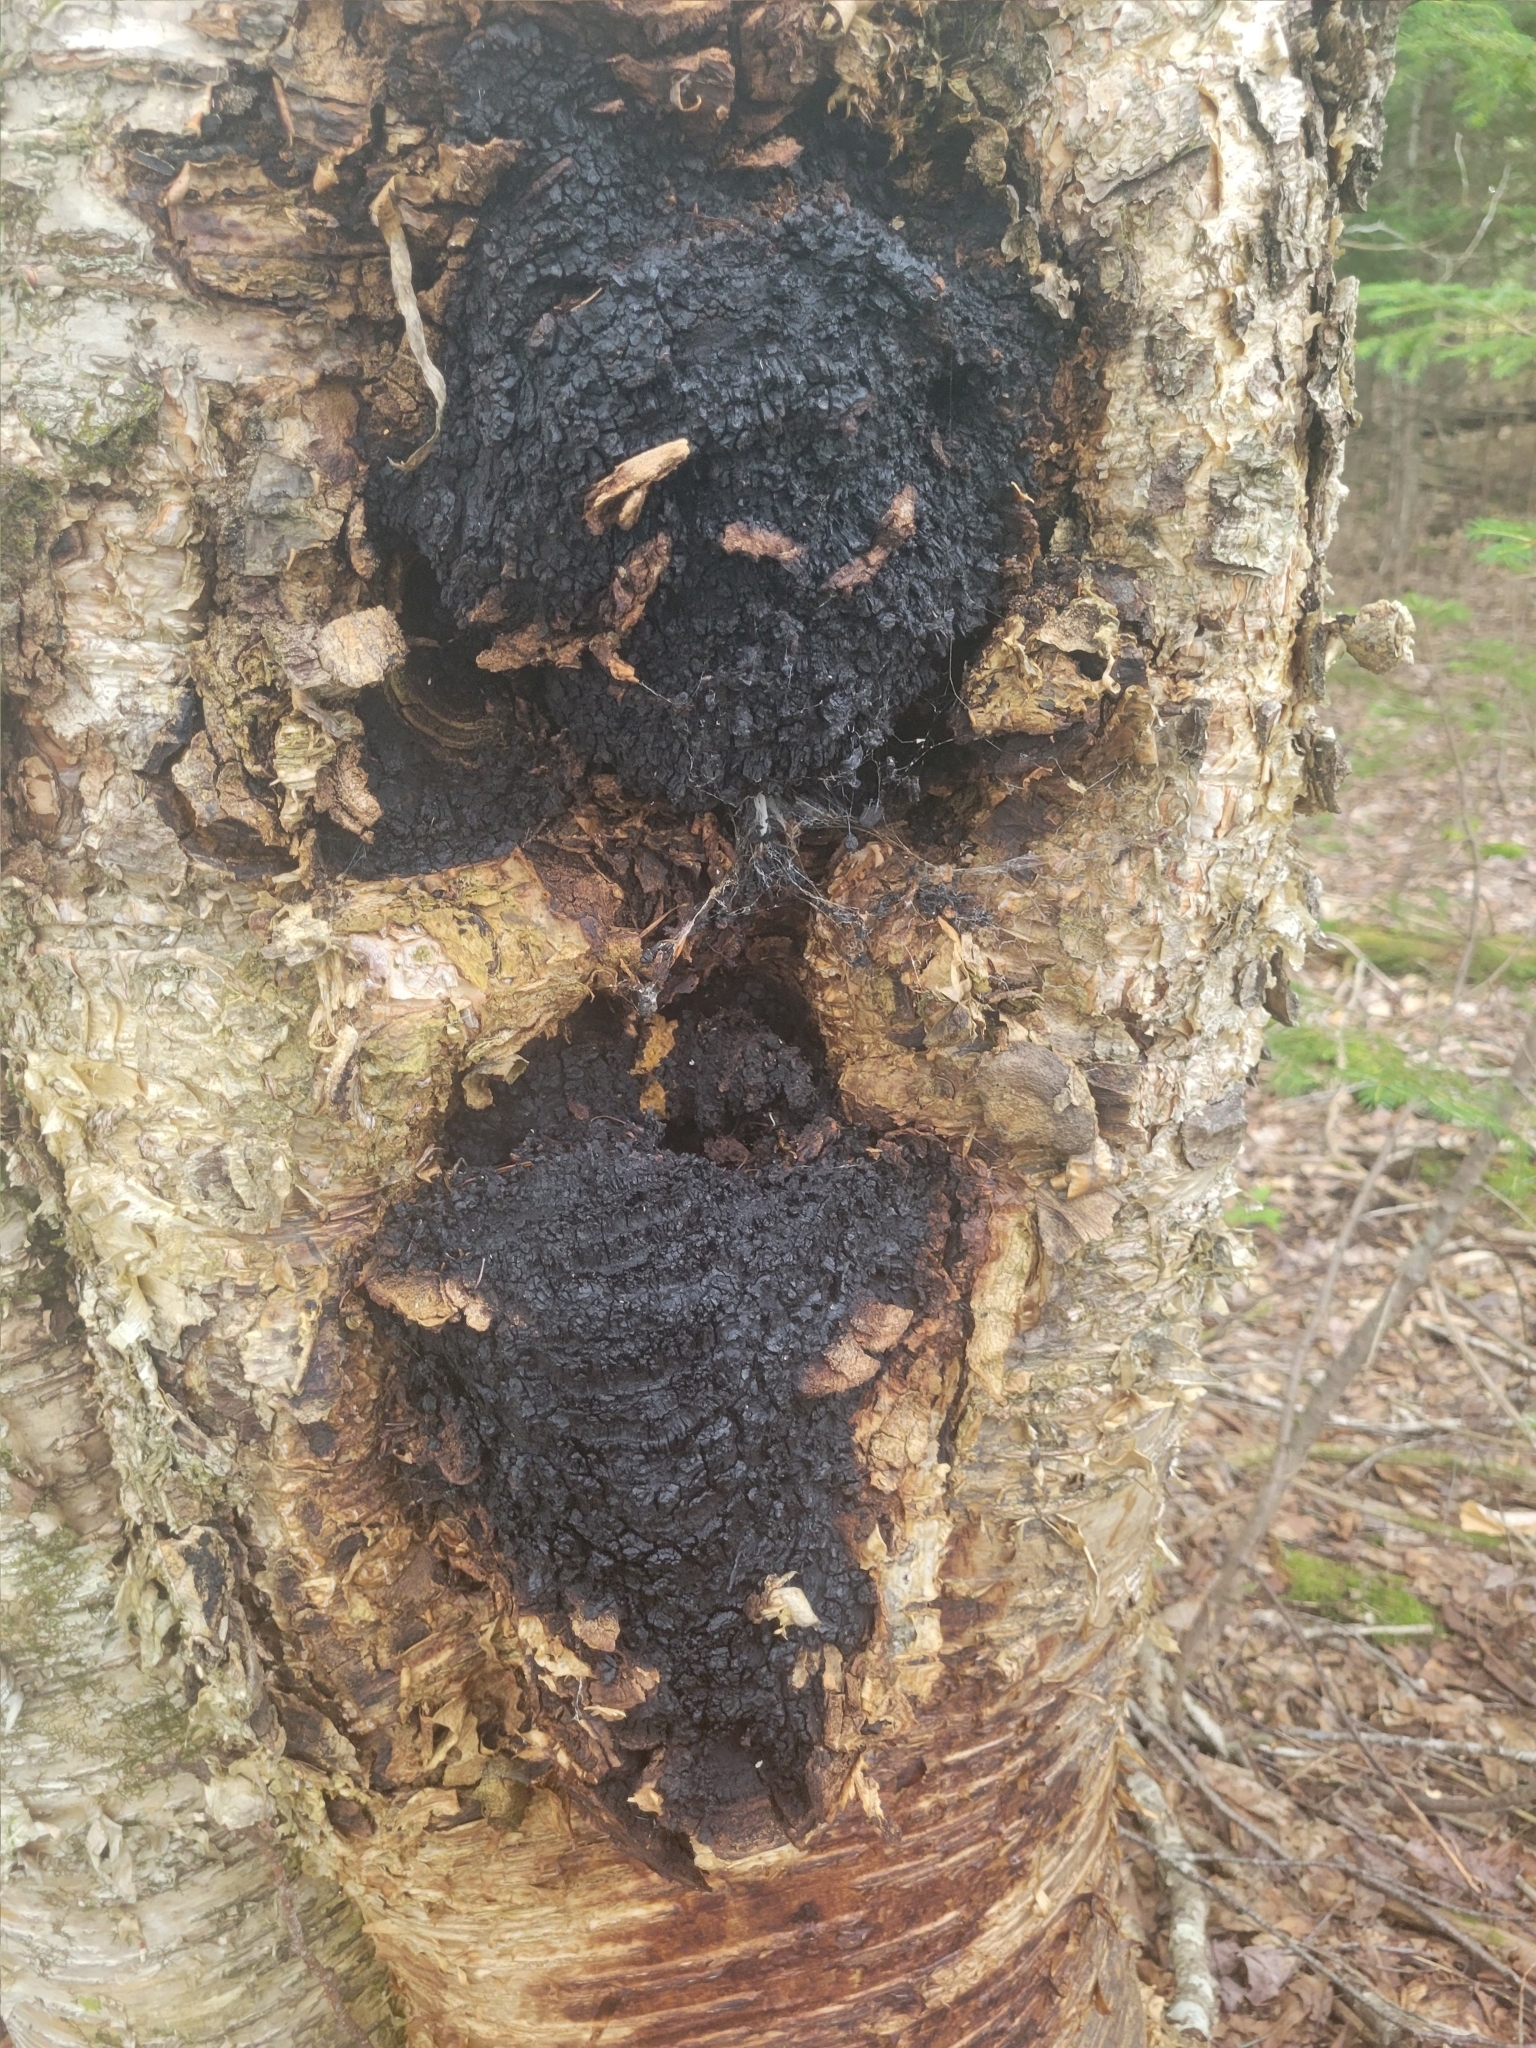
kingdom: Fungi
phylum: Basidiomycota
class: Agaricomycetes
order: Hymenochaetales
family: Hymenochaetaceae
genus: Inonotus
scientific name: Inonotus obliquus
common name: Chaga
